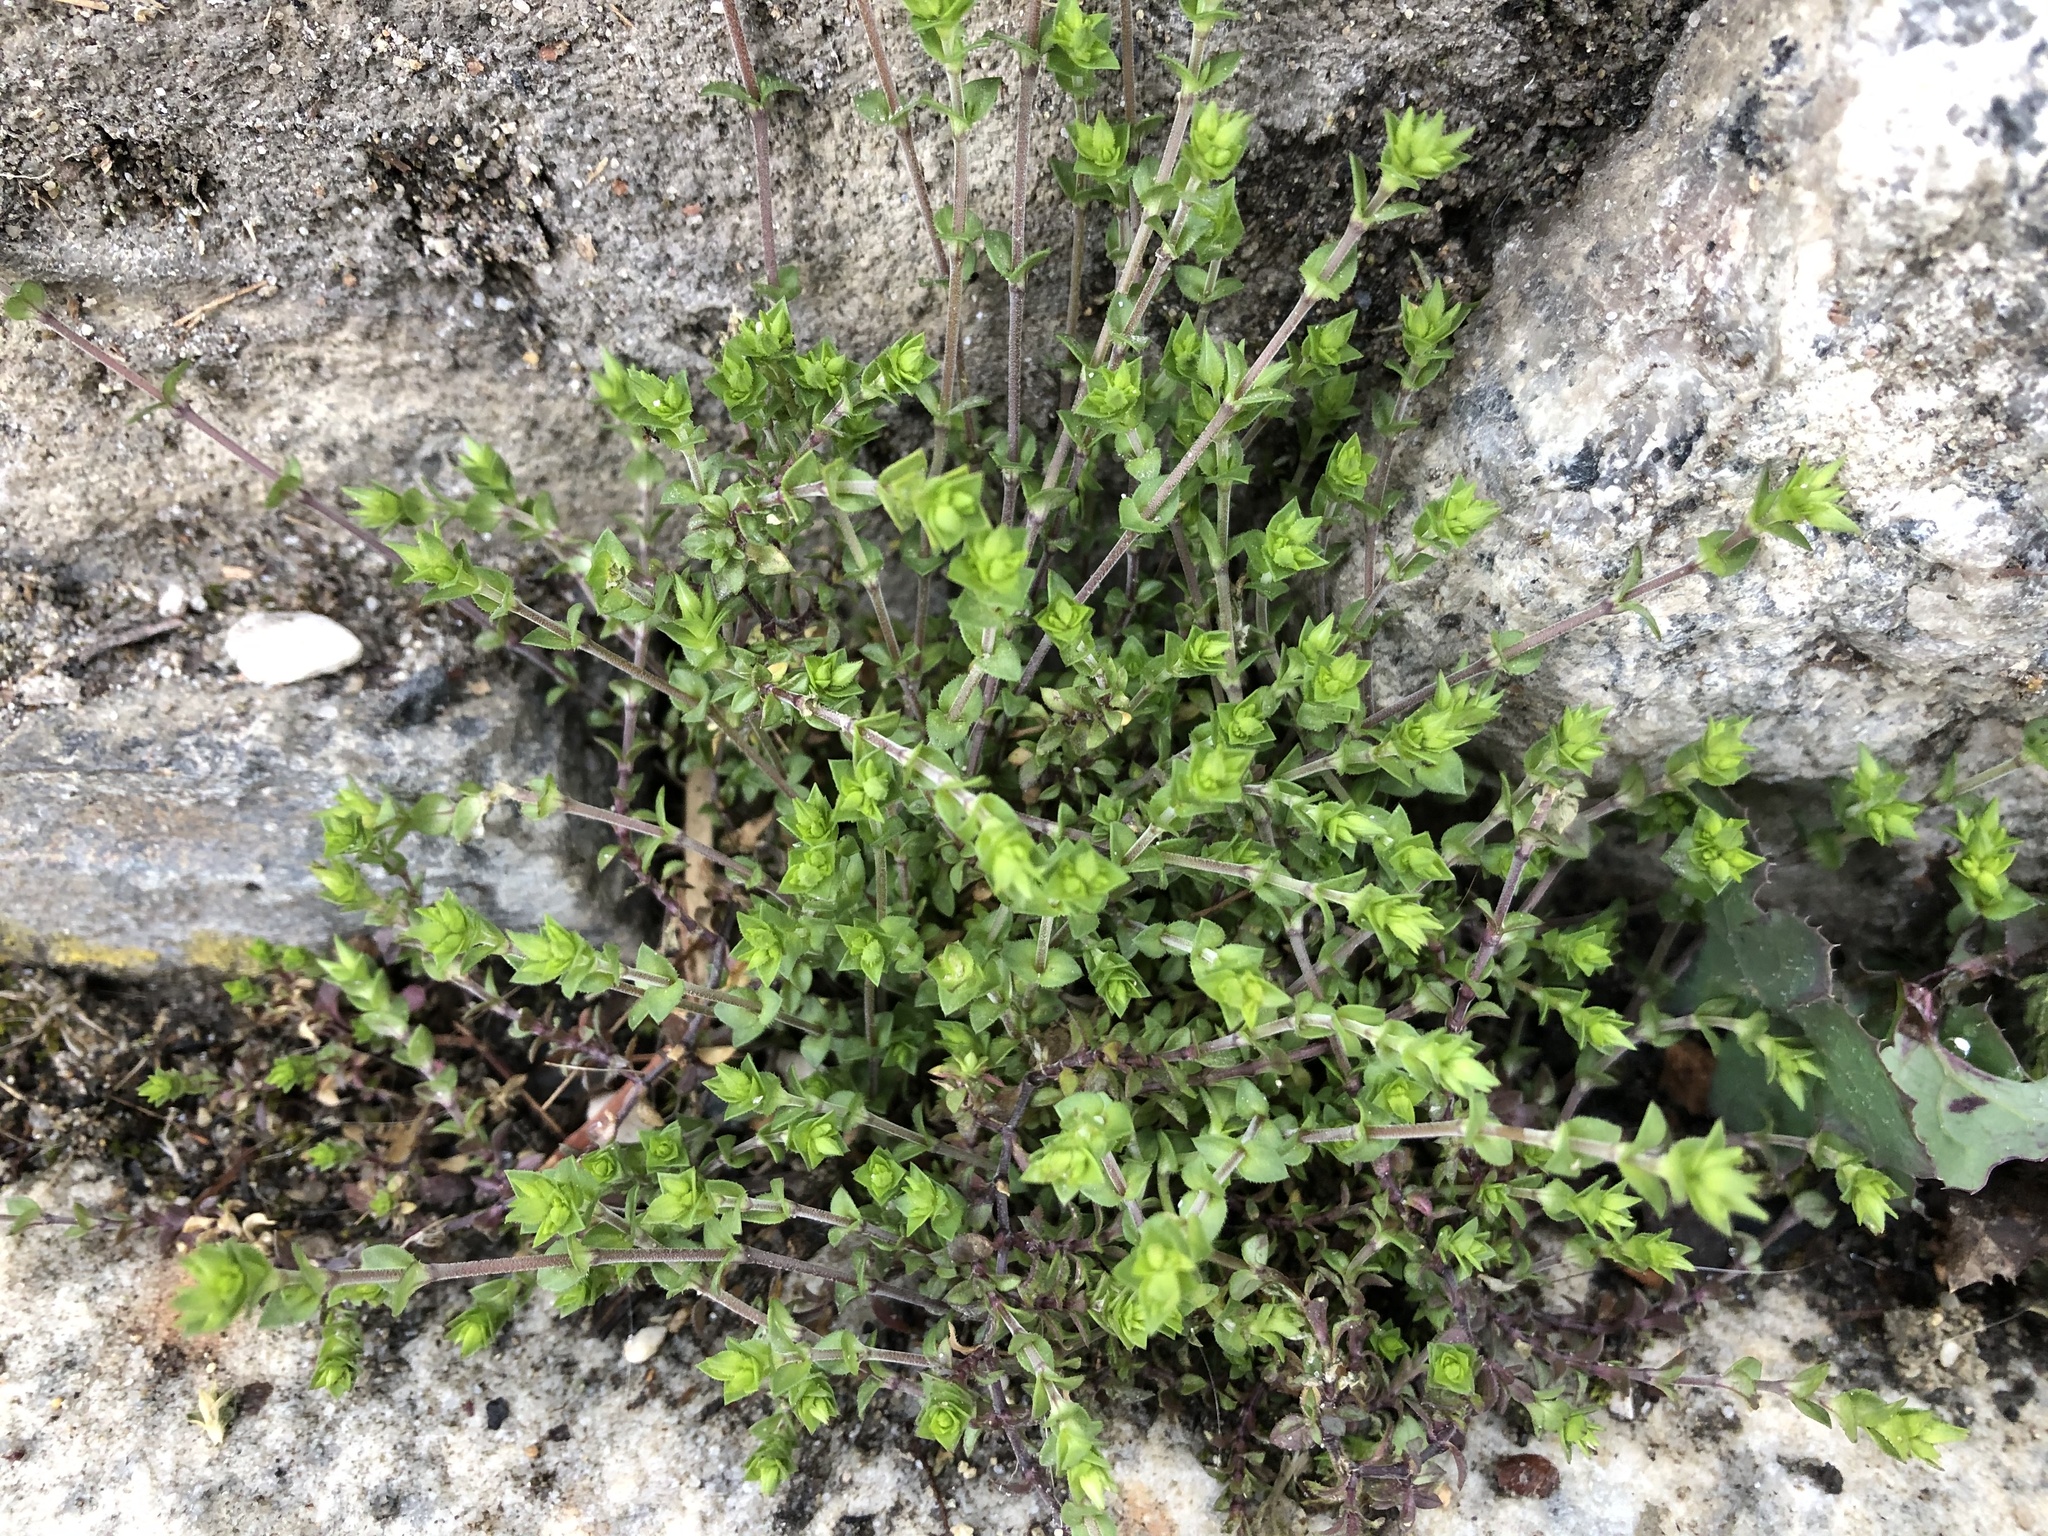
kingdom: Plantae
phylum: Tracheophyta
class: Magnoliopsida
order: Caryophyllales
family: Caryophyllaceae
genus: Arenaria
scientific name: Arenaria serpyllifolia
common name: Thyme-leaved sandwort
